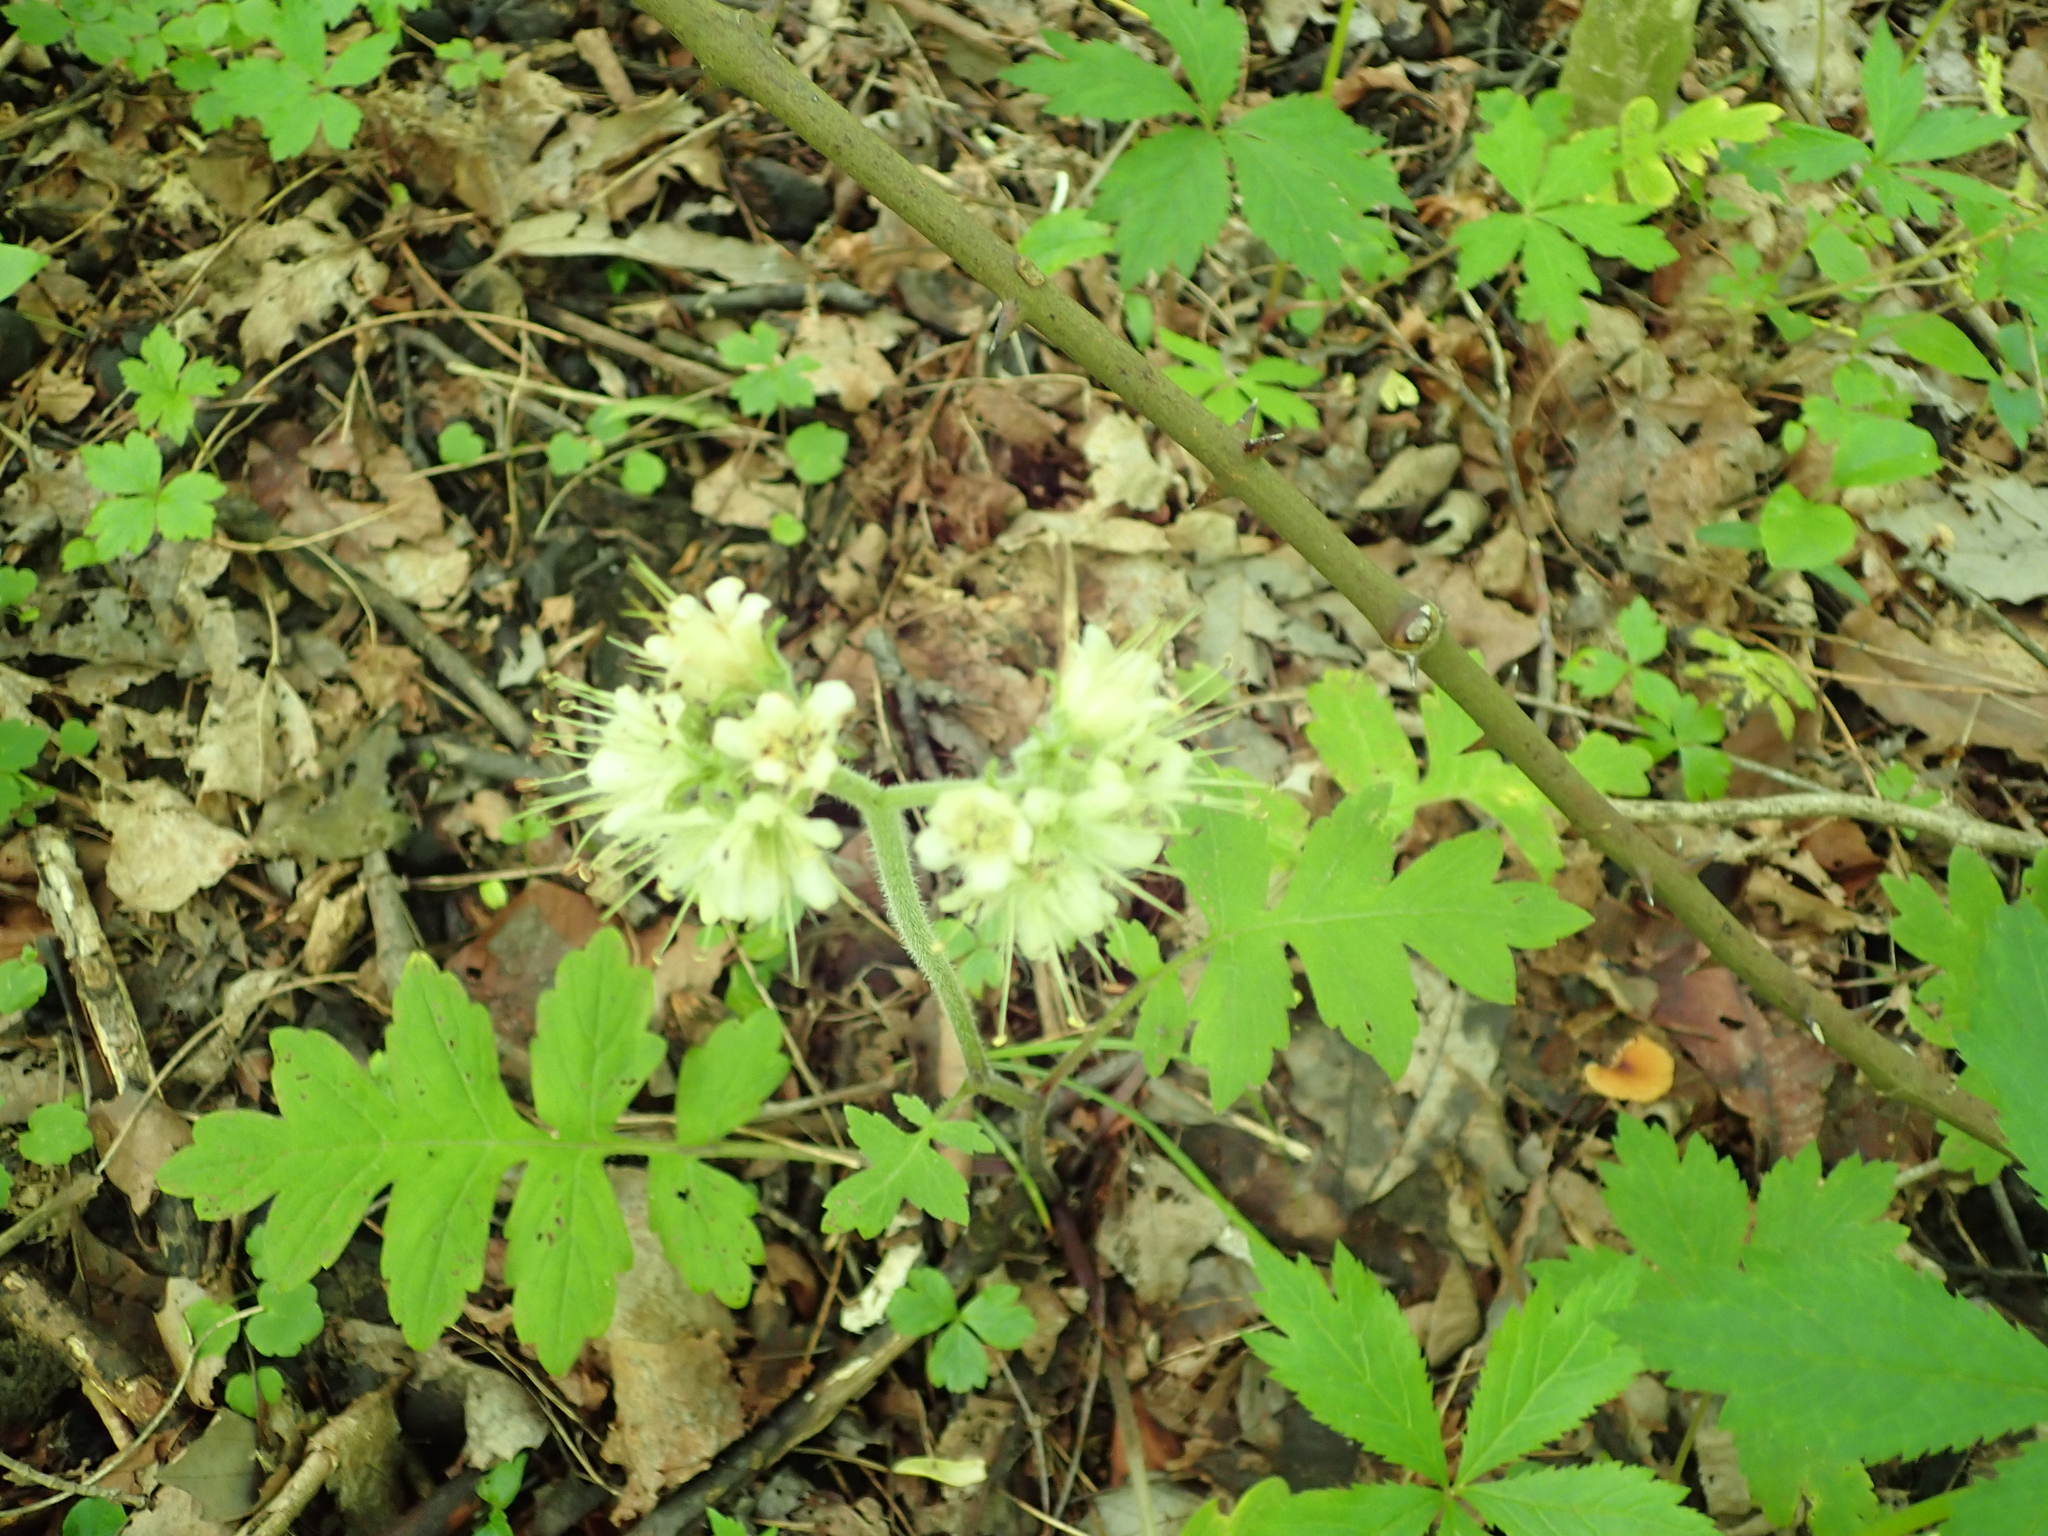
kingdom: Plantae
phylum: Tracheophyta
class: Magnoliopsida
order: Boraginales
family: Hydrophyllaceae
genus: Hydrophyllum
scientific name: Hydrophyllum macrophyllum
